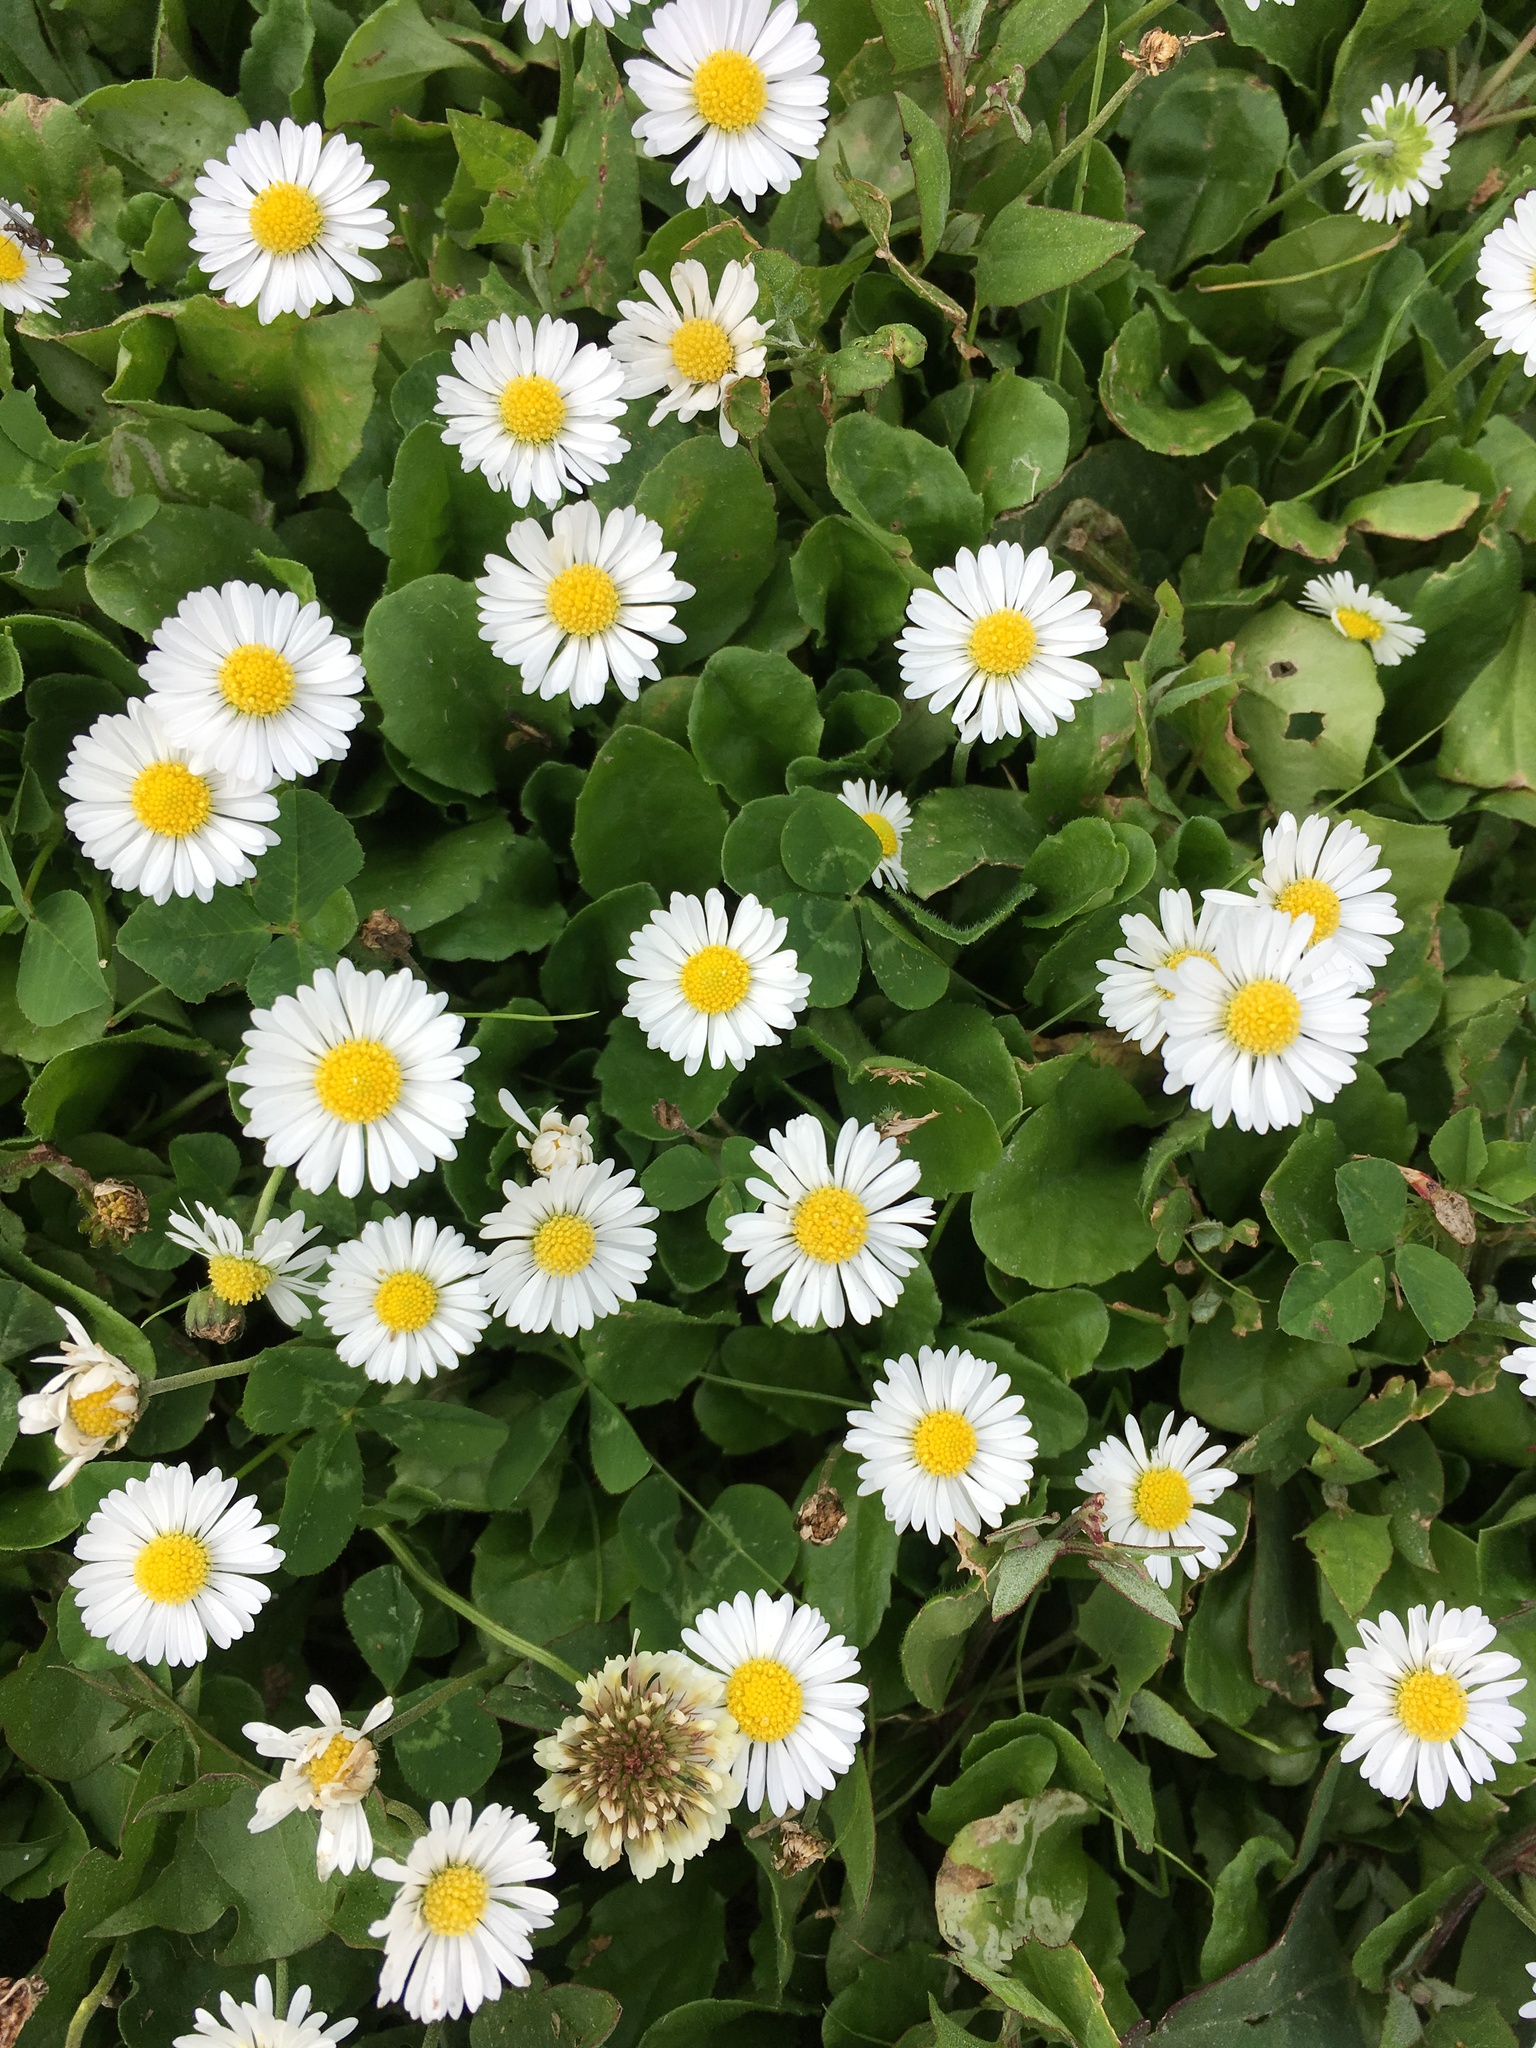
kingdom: Plantae
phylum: Tracheophyta
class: Magnoliopsida
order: Asterales
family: Asteraceae
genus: Bellis
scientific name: Bellis perennis
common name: Lawndaisy
